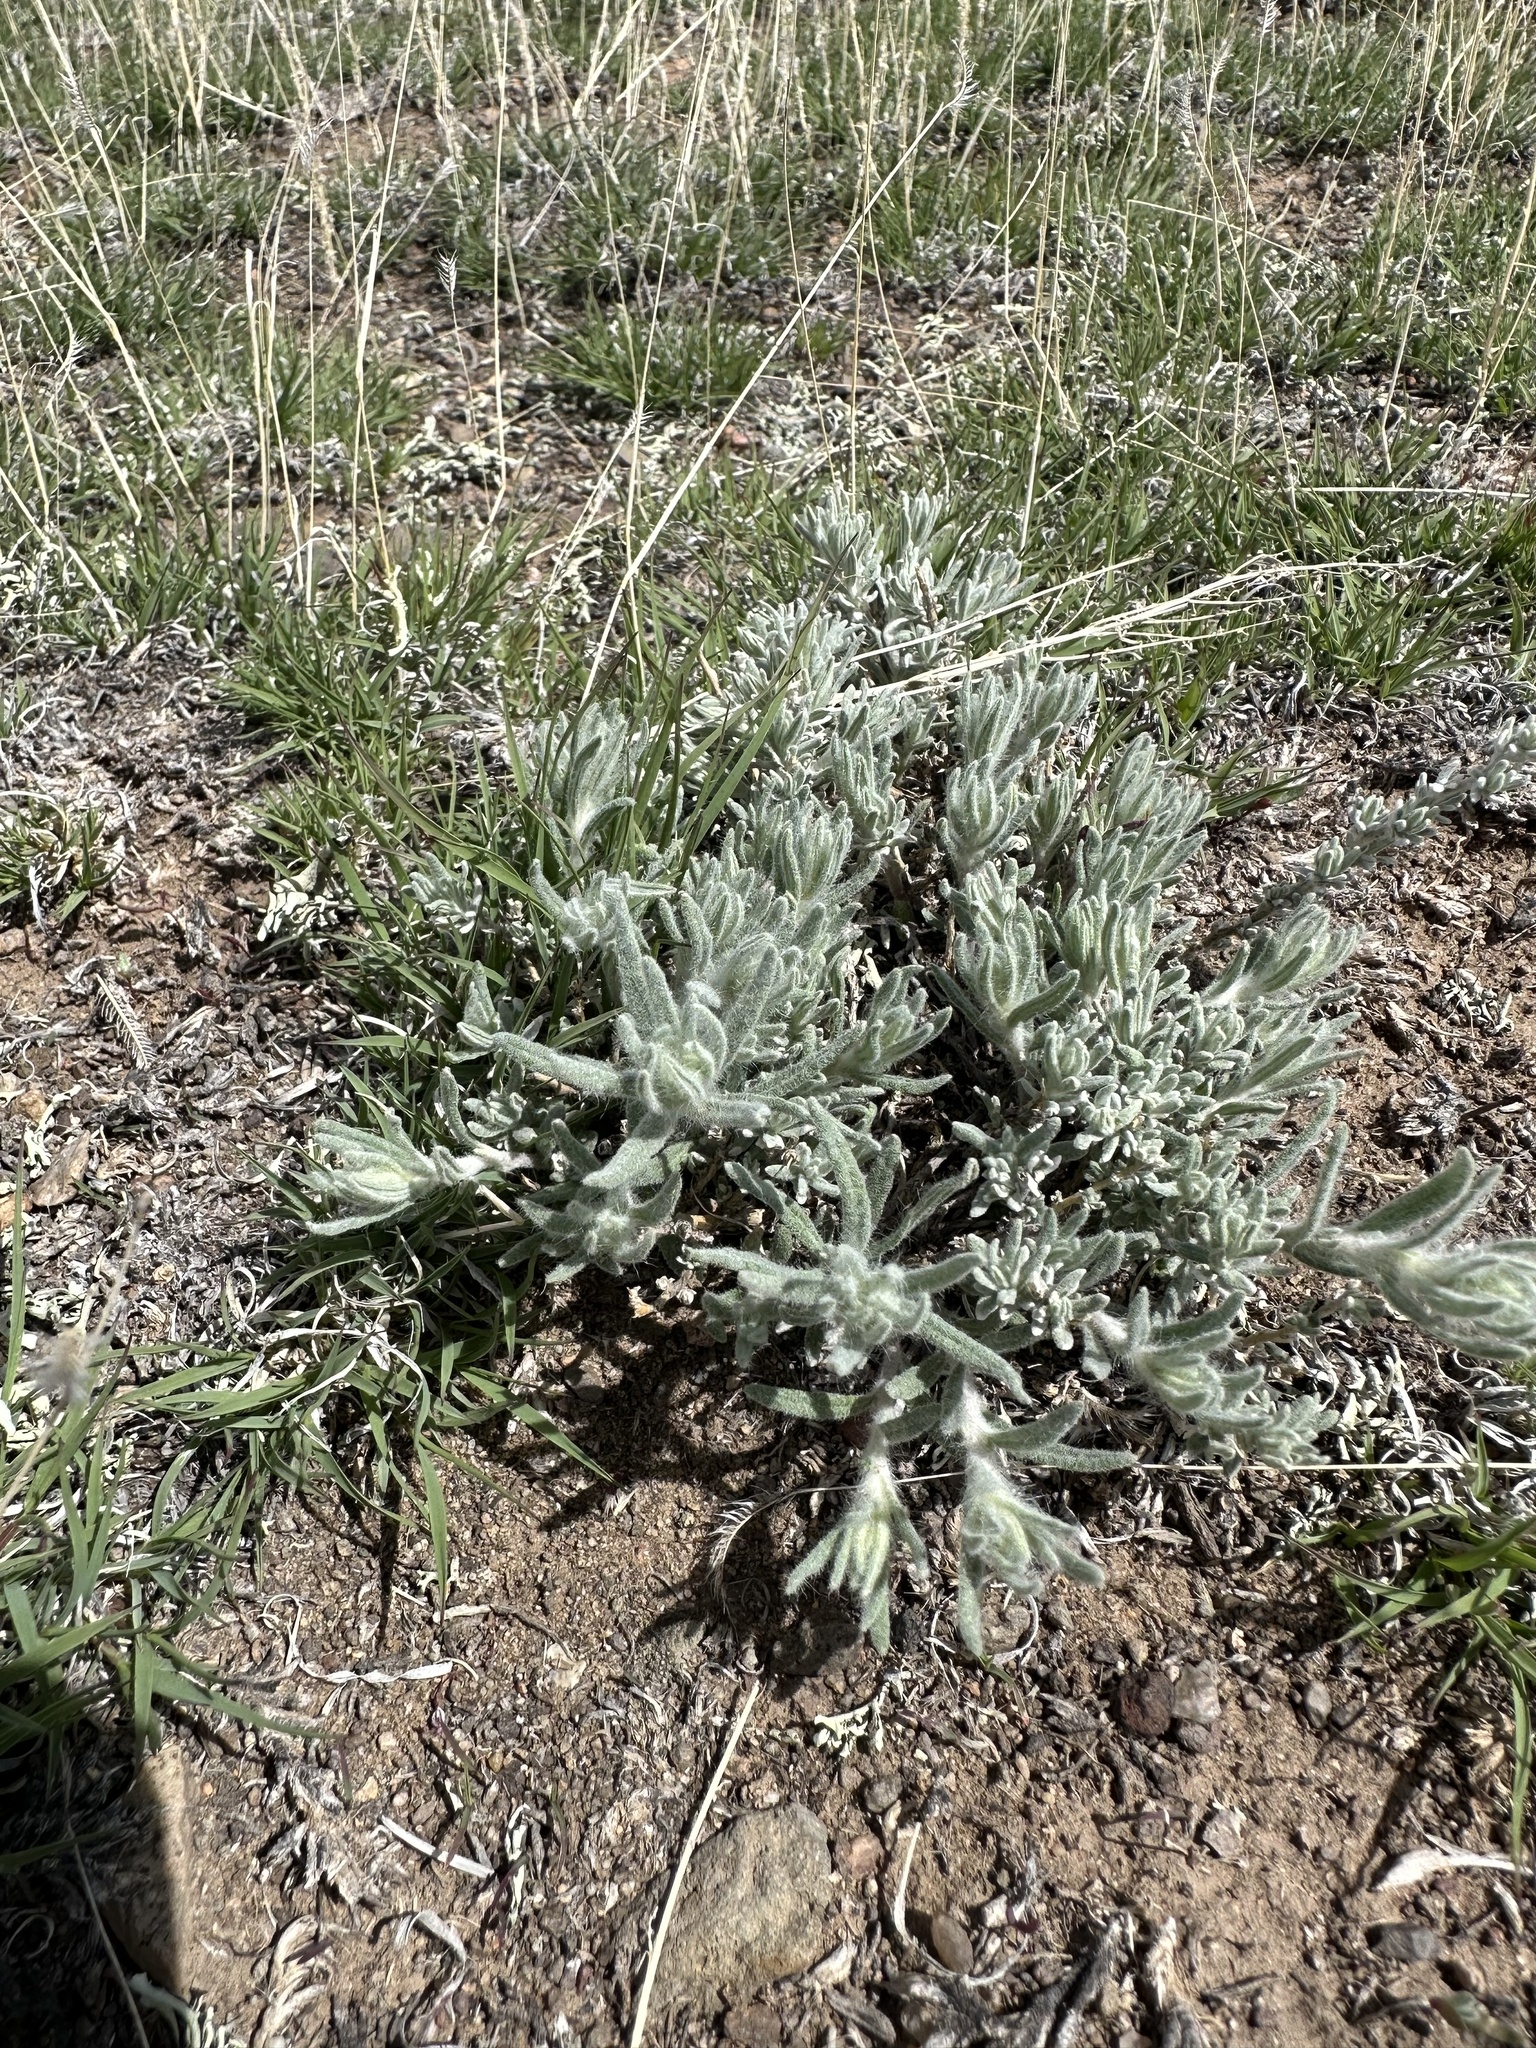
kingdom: Plantae
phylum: Tracheophyta
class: Magnoliopsida
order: Caryophyllales
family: Amaranthaceae
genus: Krascheninnikovia
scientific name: Krascheninnikovia lanata
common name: Winterfat
